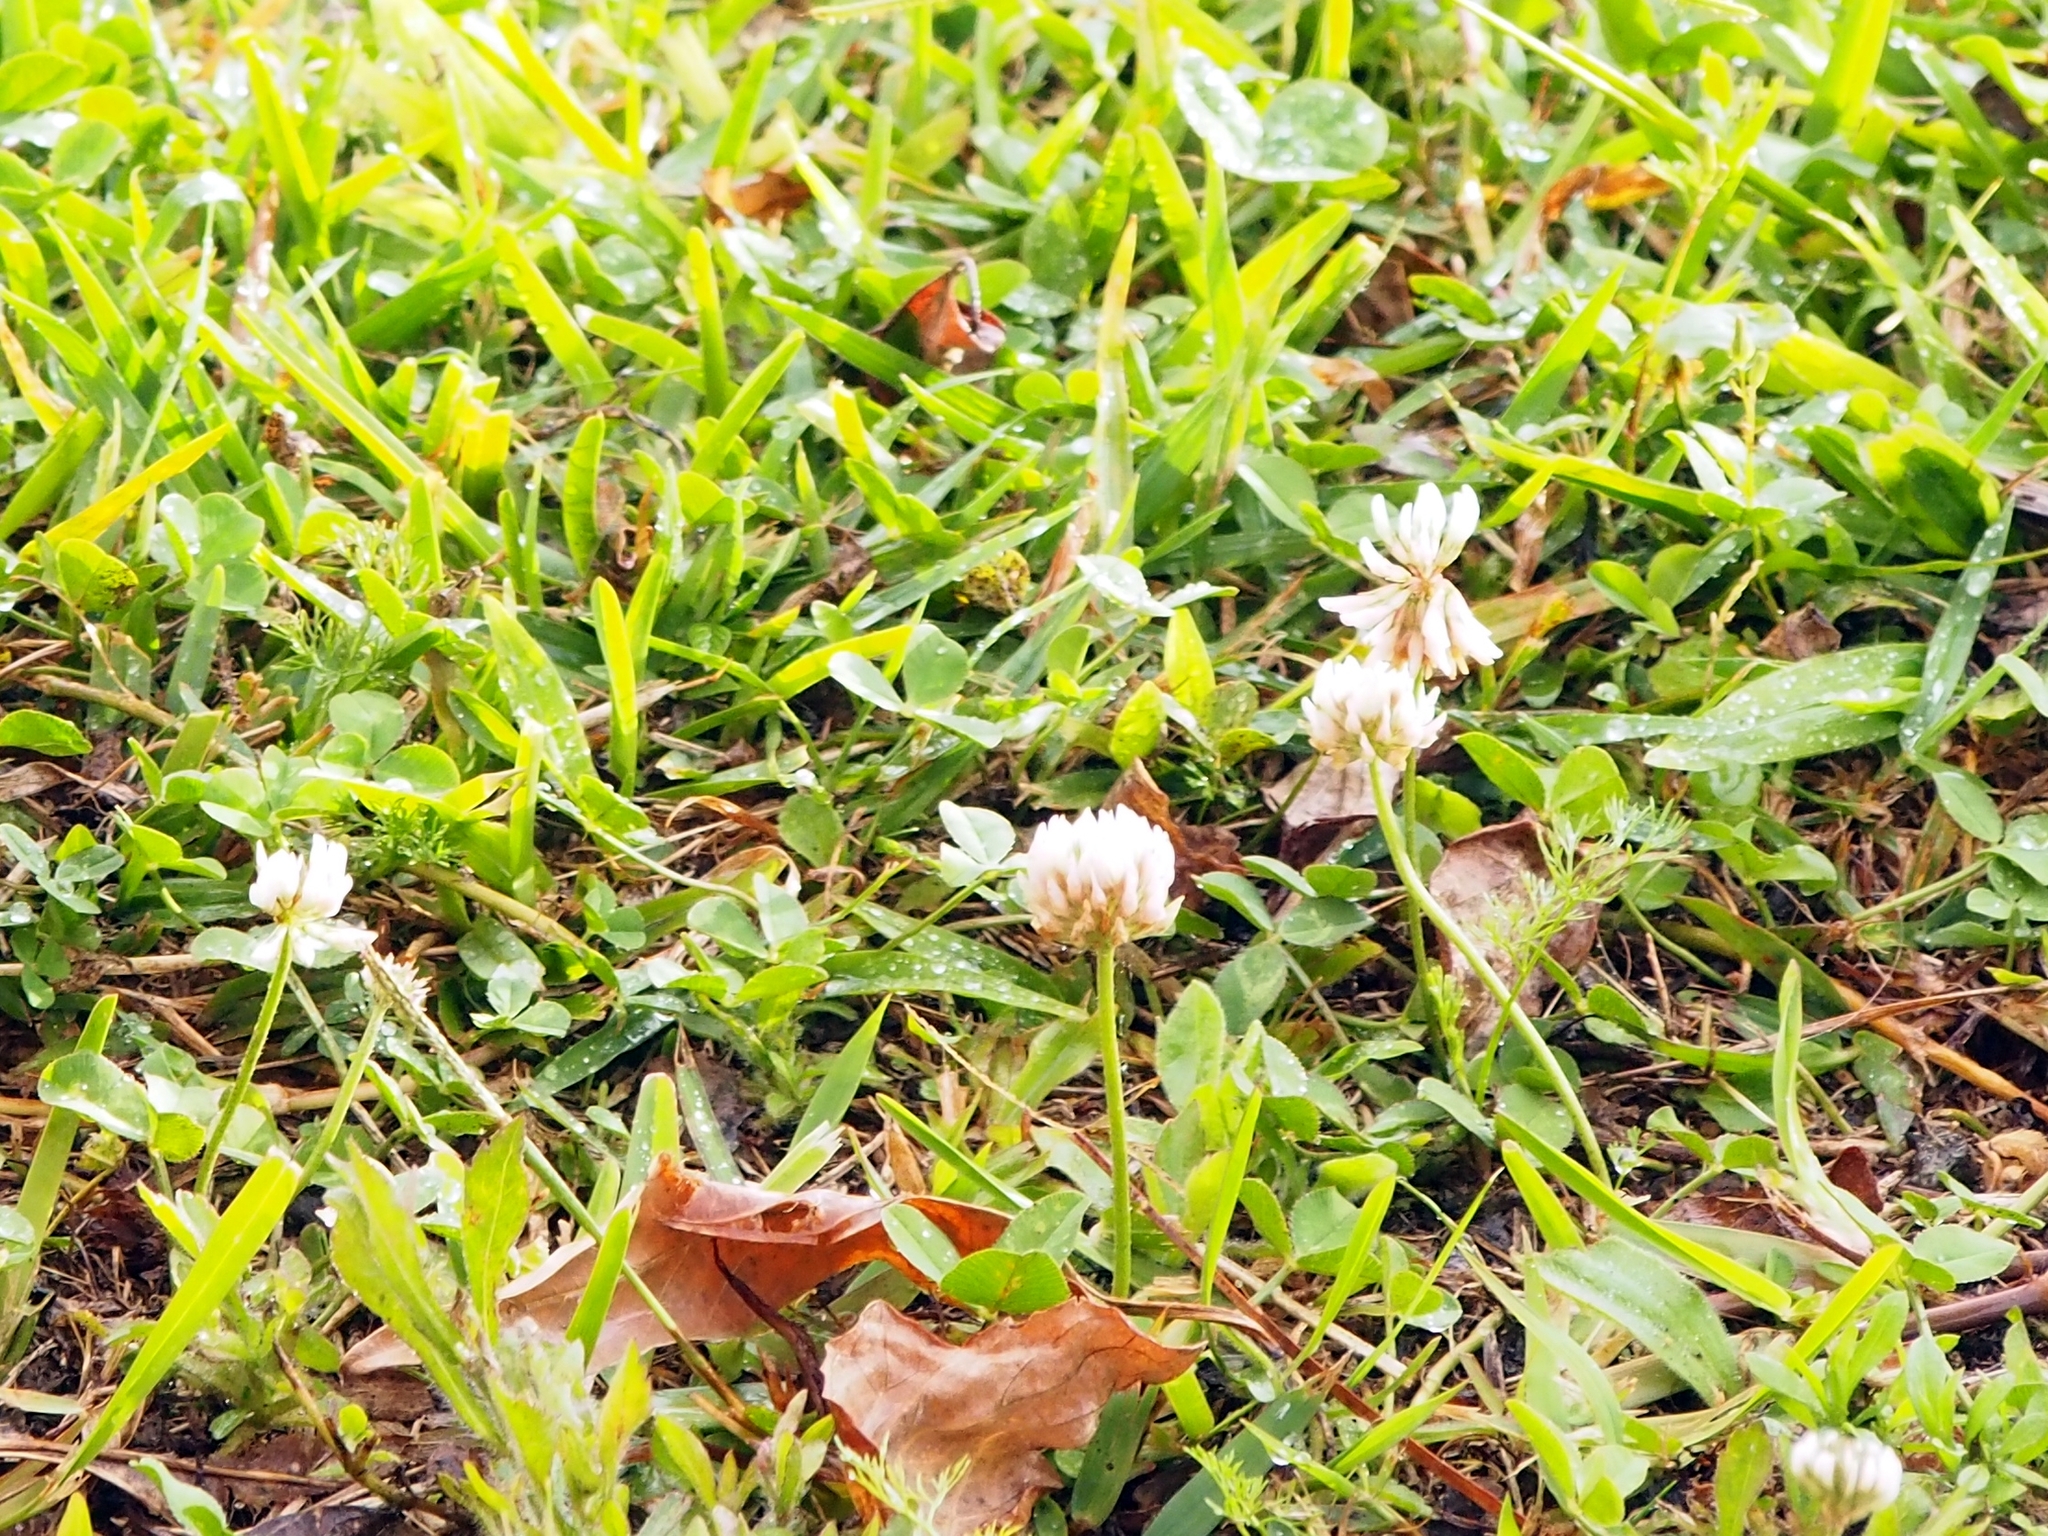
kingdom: Plantae
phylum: Tracheophyta
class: Magnoliopsida
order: Fabales
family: Fabaceae
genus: Trifolium
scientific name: Trifolium repens
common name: White clover
